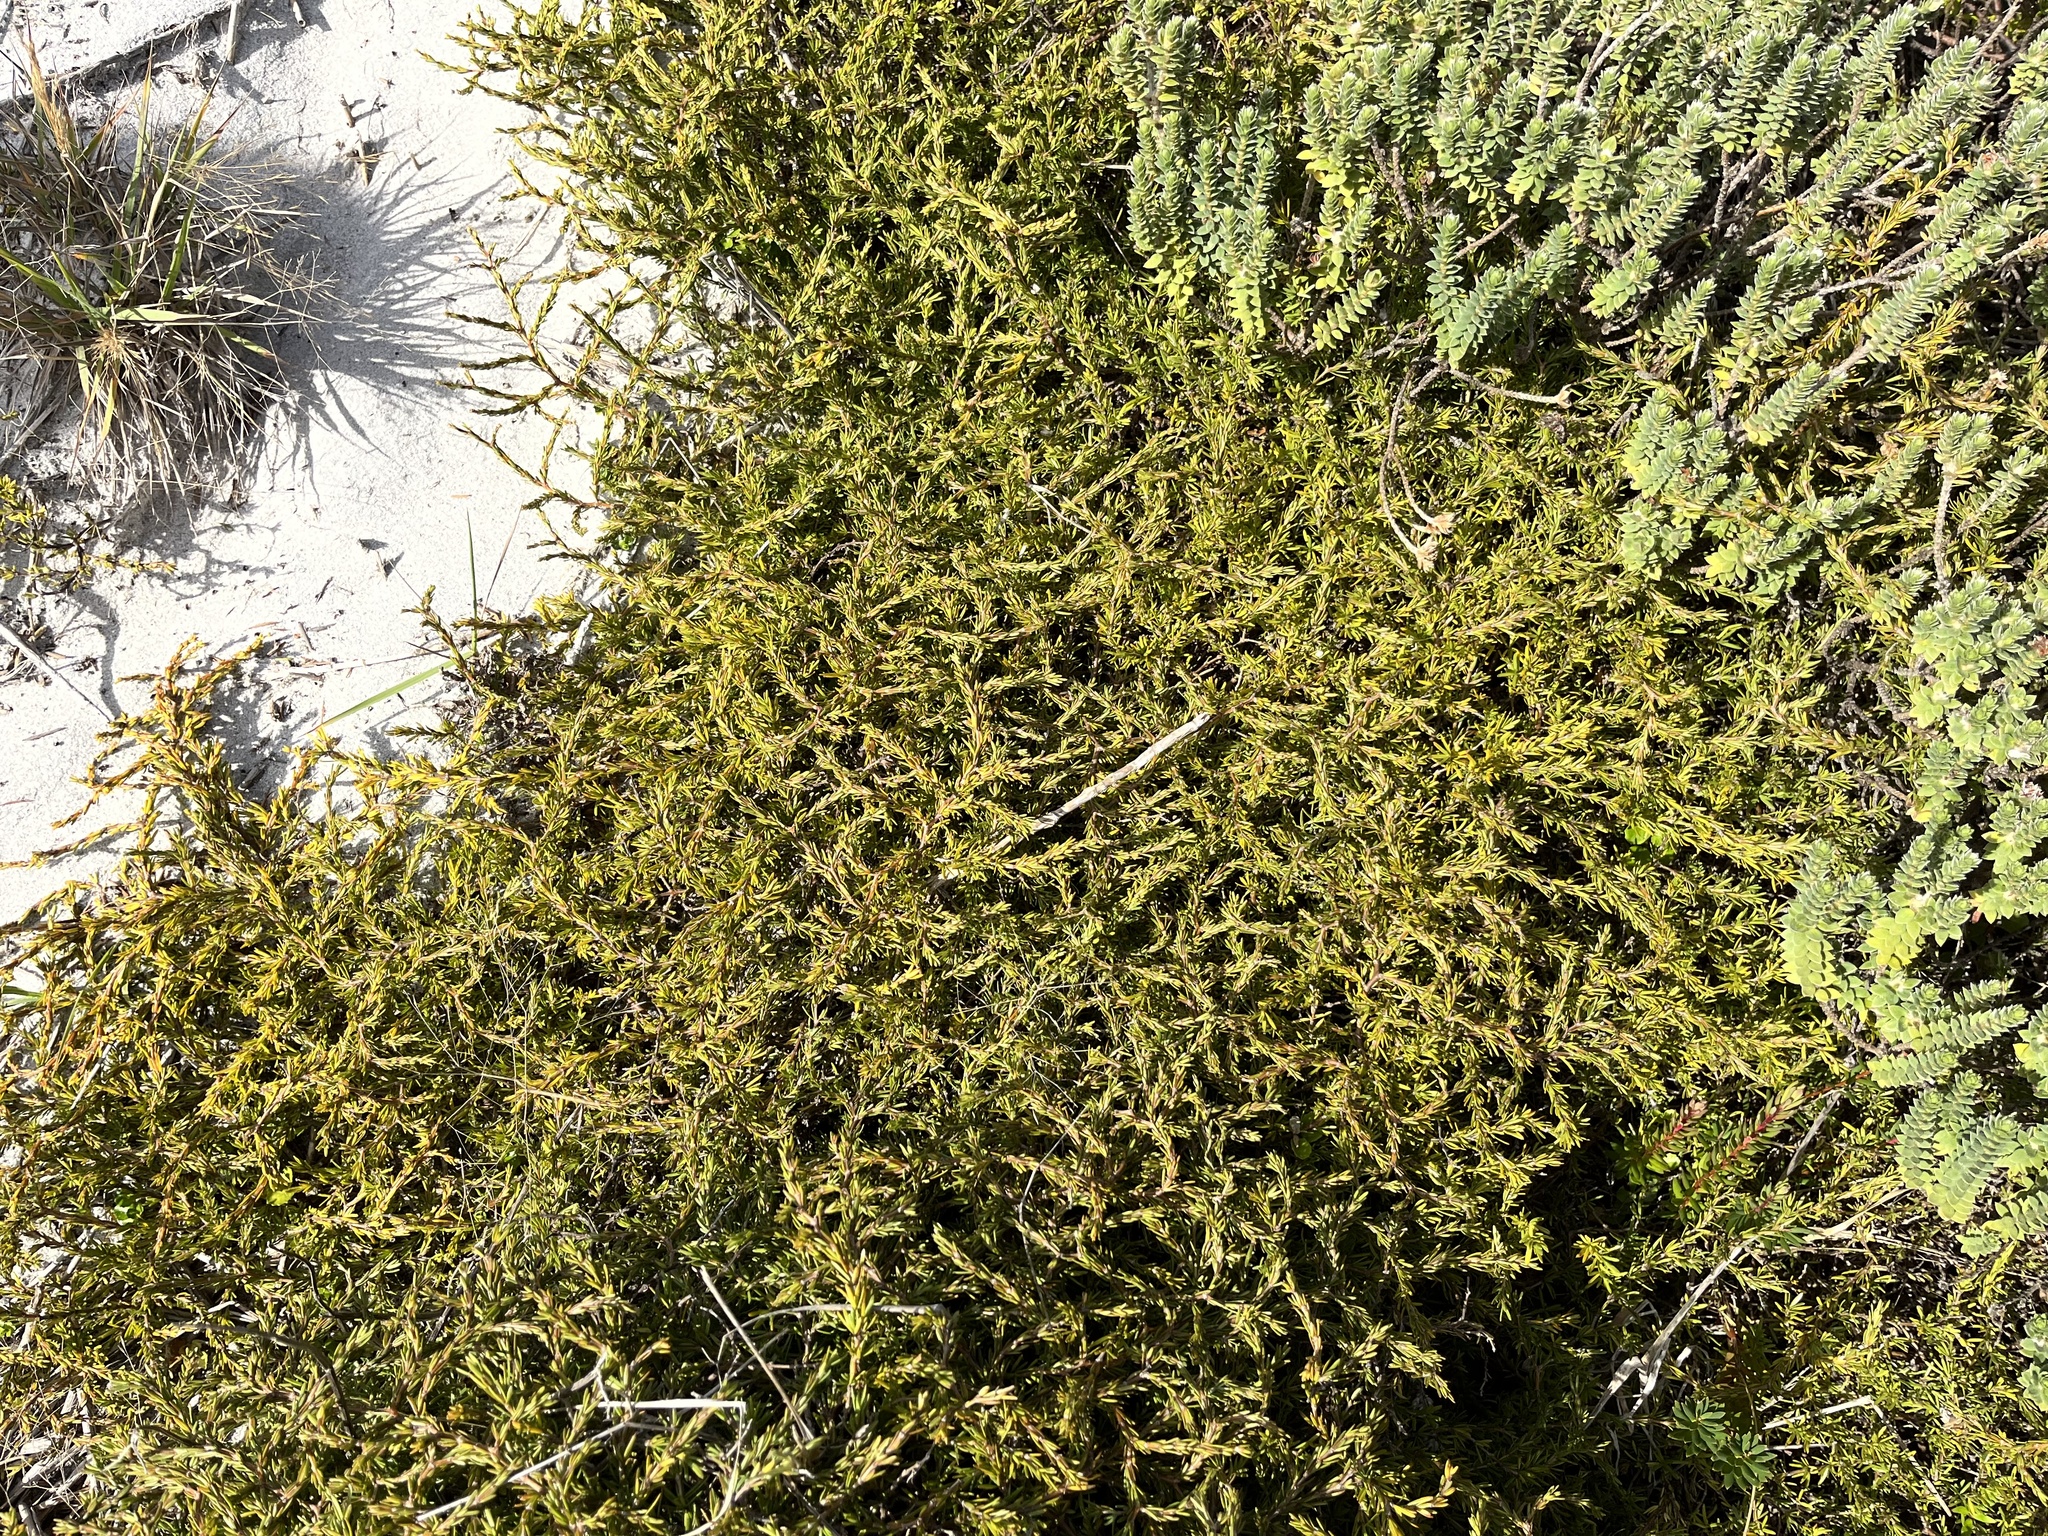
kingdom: Plantae
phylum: Tracheophyta
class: Magnoliopsida
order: Gentianales
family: Rubiaceae
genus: Coprosma
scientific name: Coprosma acerosa
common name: Sand coprosma
